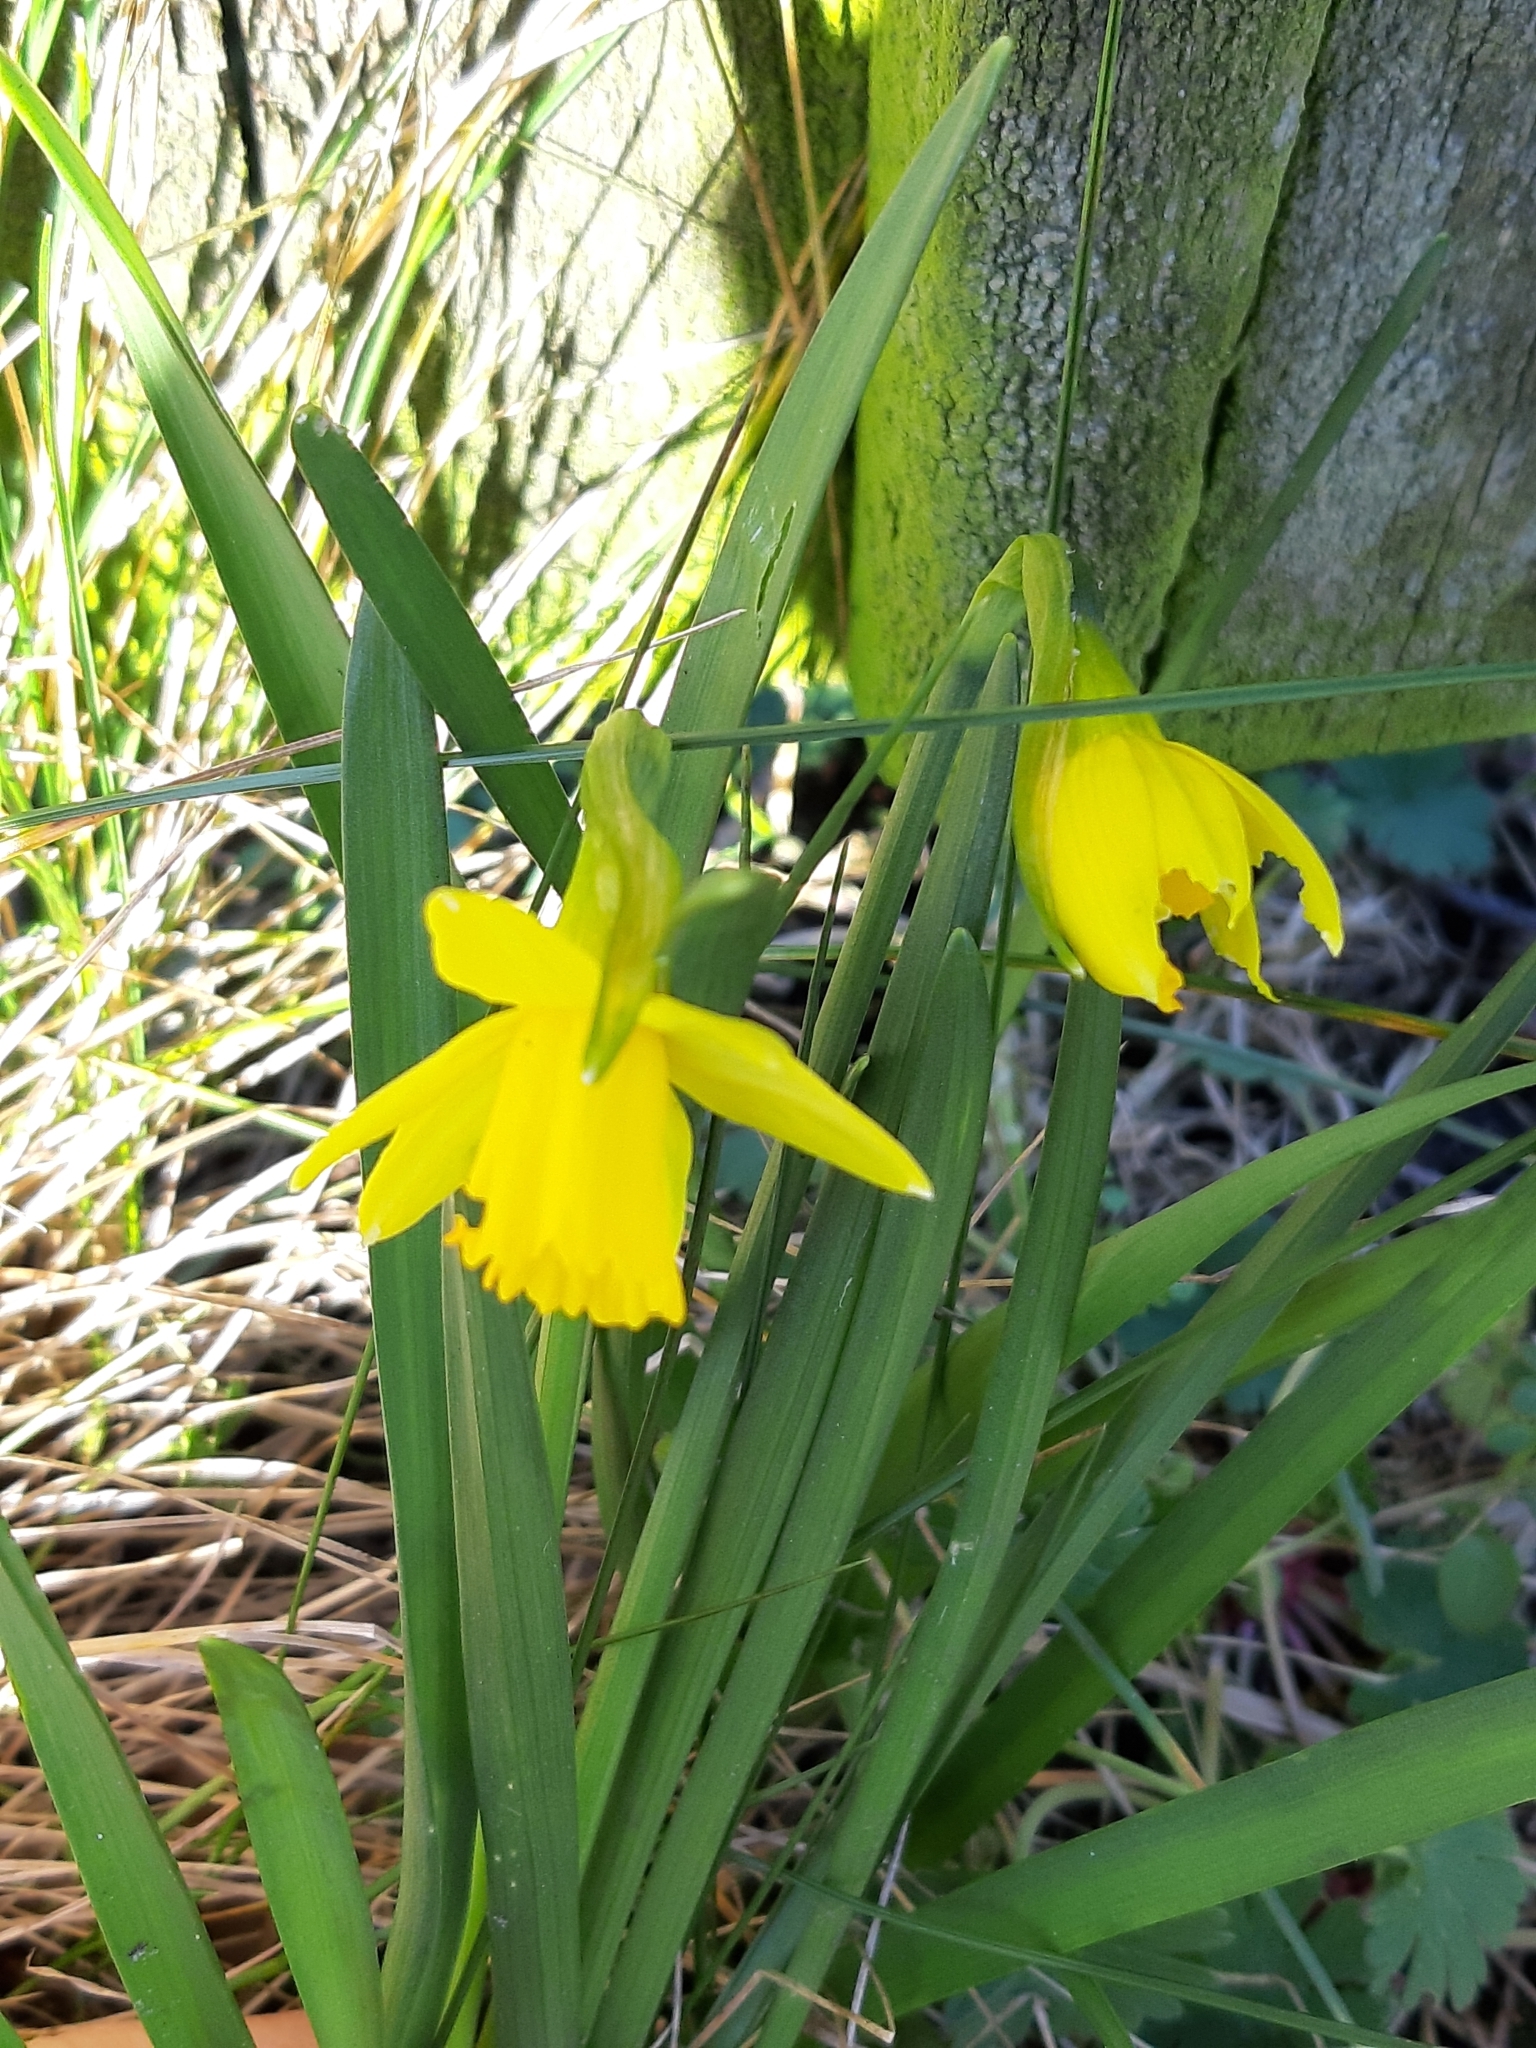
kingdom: Plantae
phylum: Tracheophyta
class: Liliopsida
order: Asparagales
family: Amaryllidaceae
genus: Narcissus
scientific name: Narcissus pseudonarcissus
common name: Daffodil
